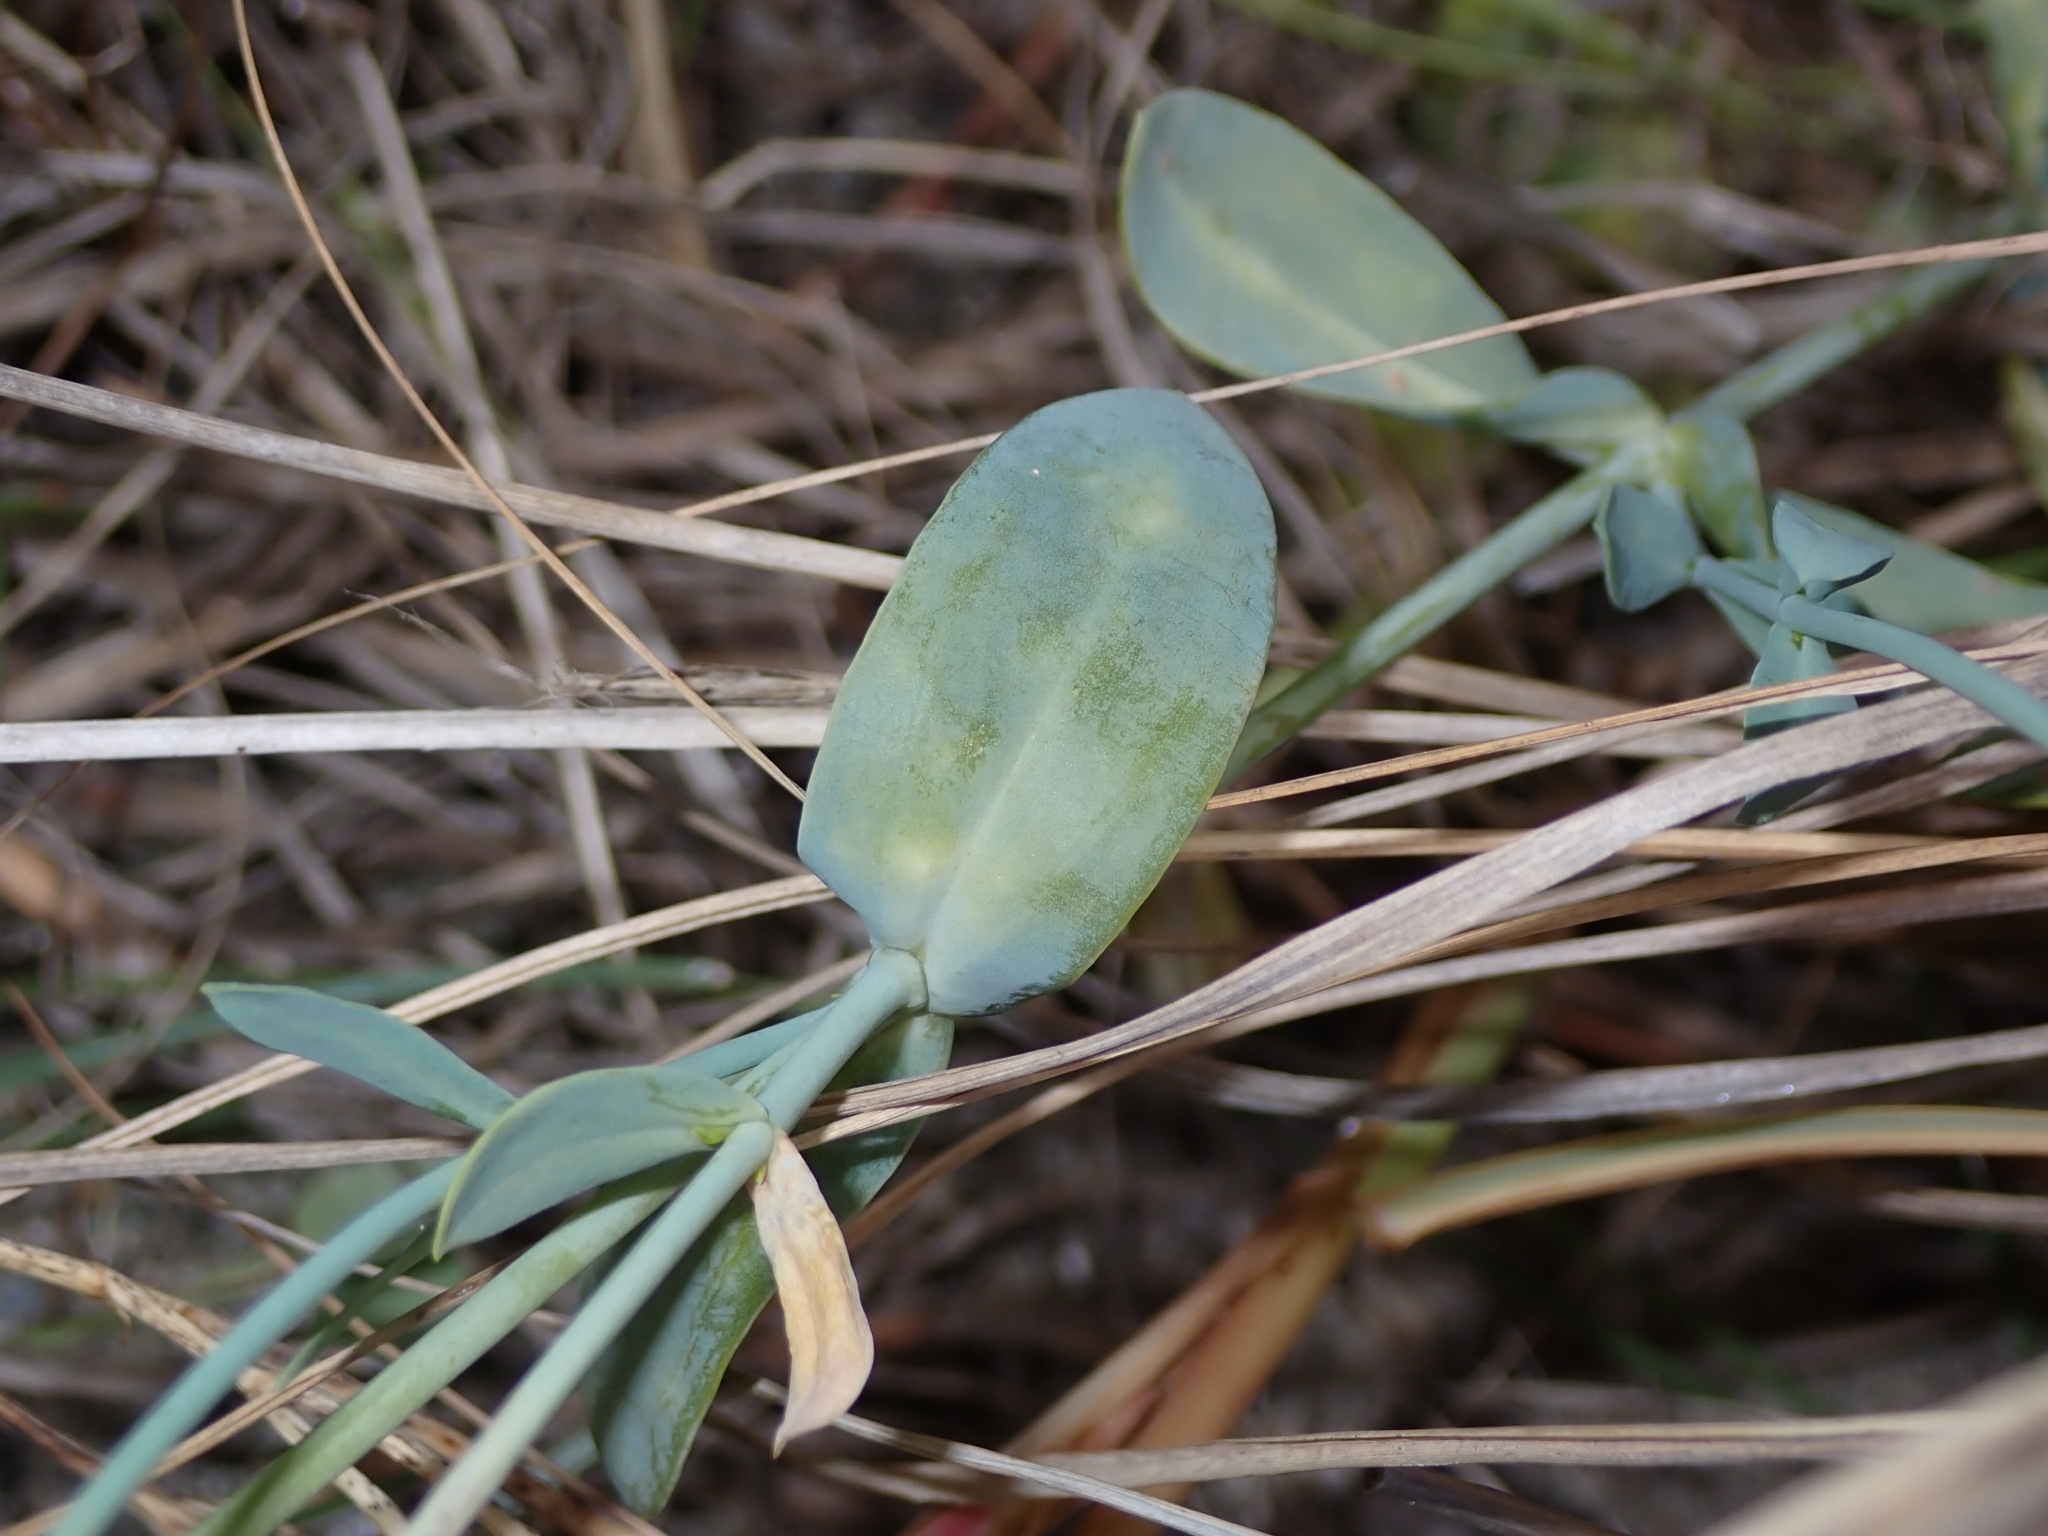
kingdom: Plantae
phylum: Tracheophyta
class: Magnoliopsida
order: Gentianales
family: Gentianaceae
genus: Eustoma
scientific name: Eustoma exaltatum
